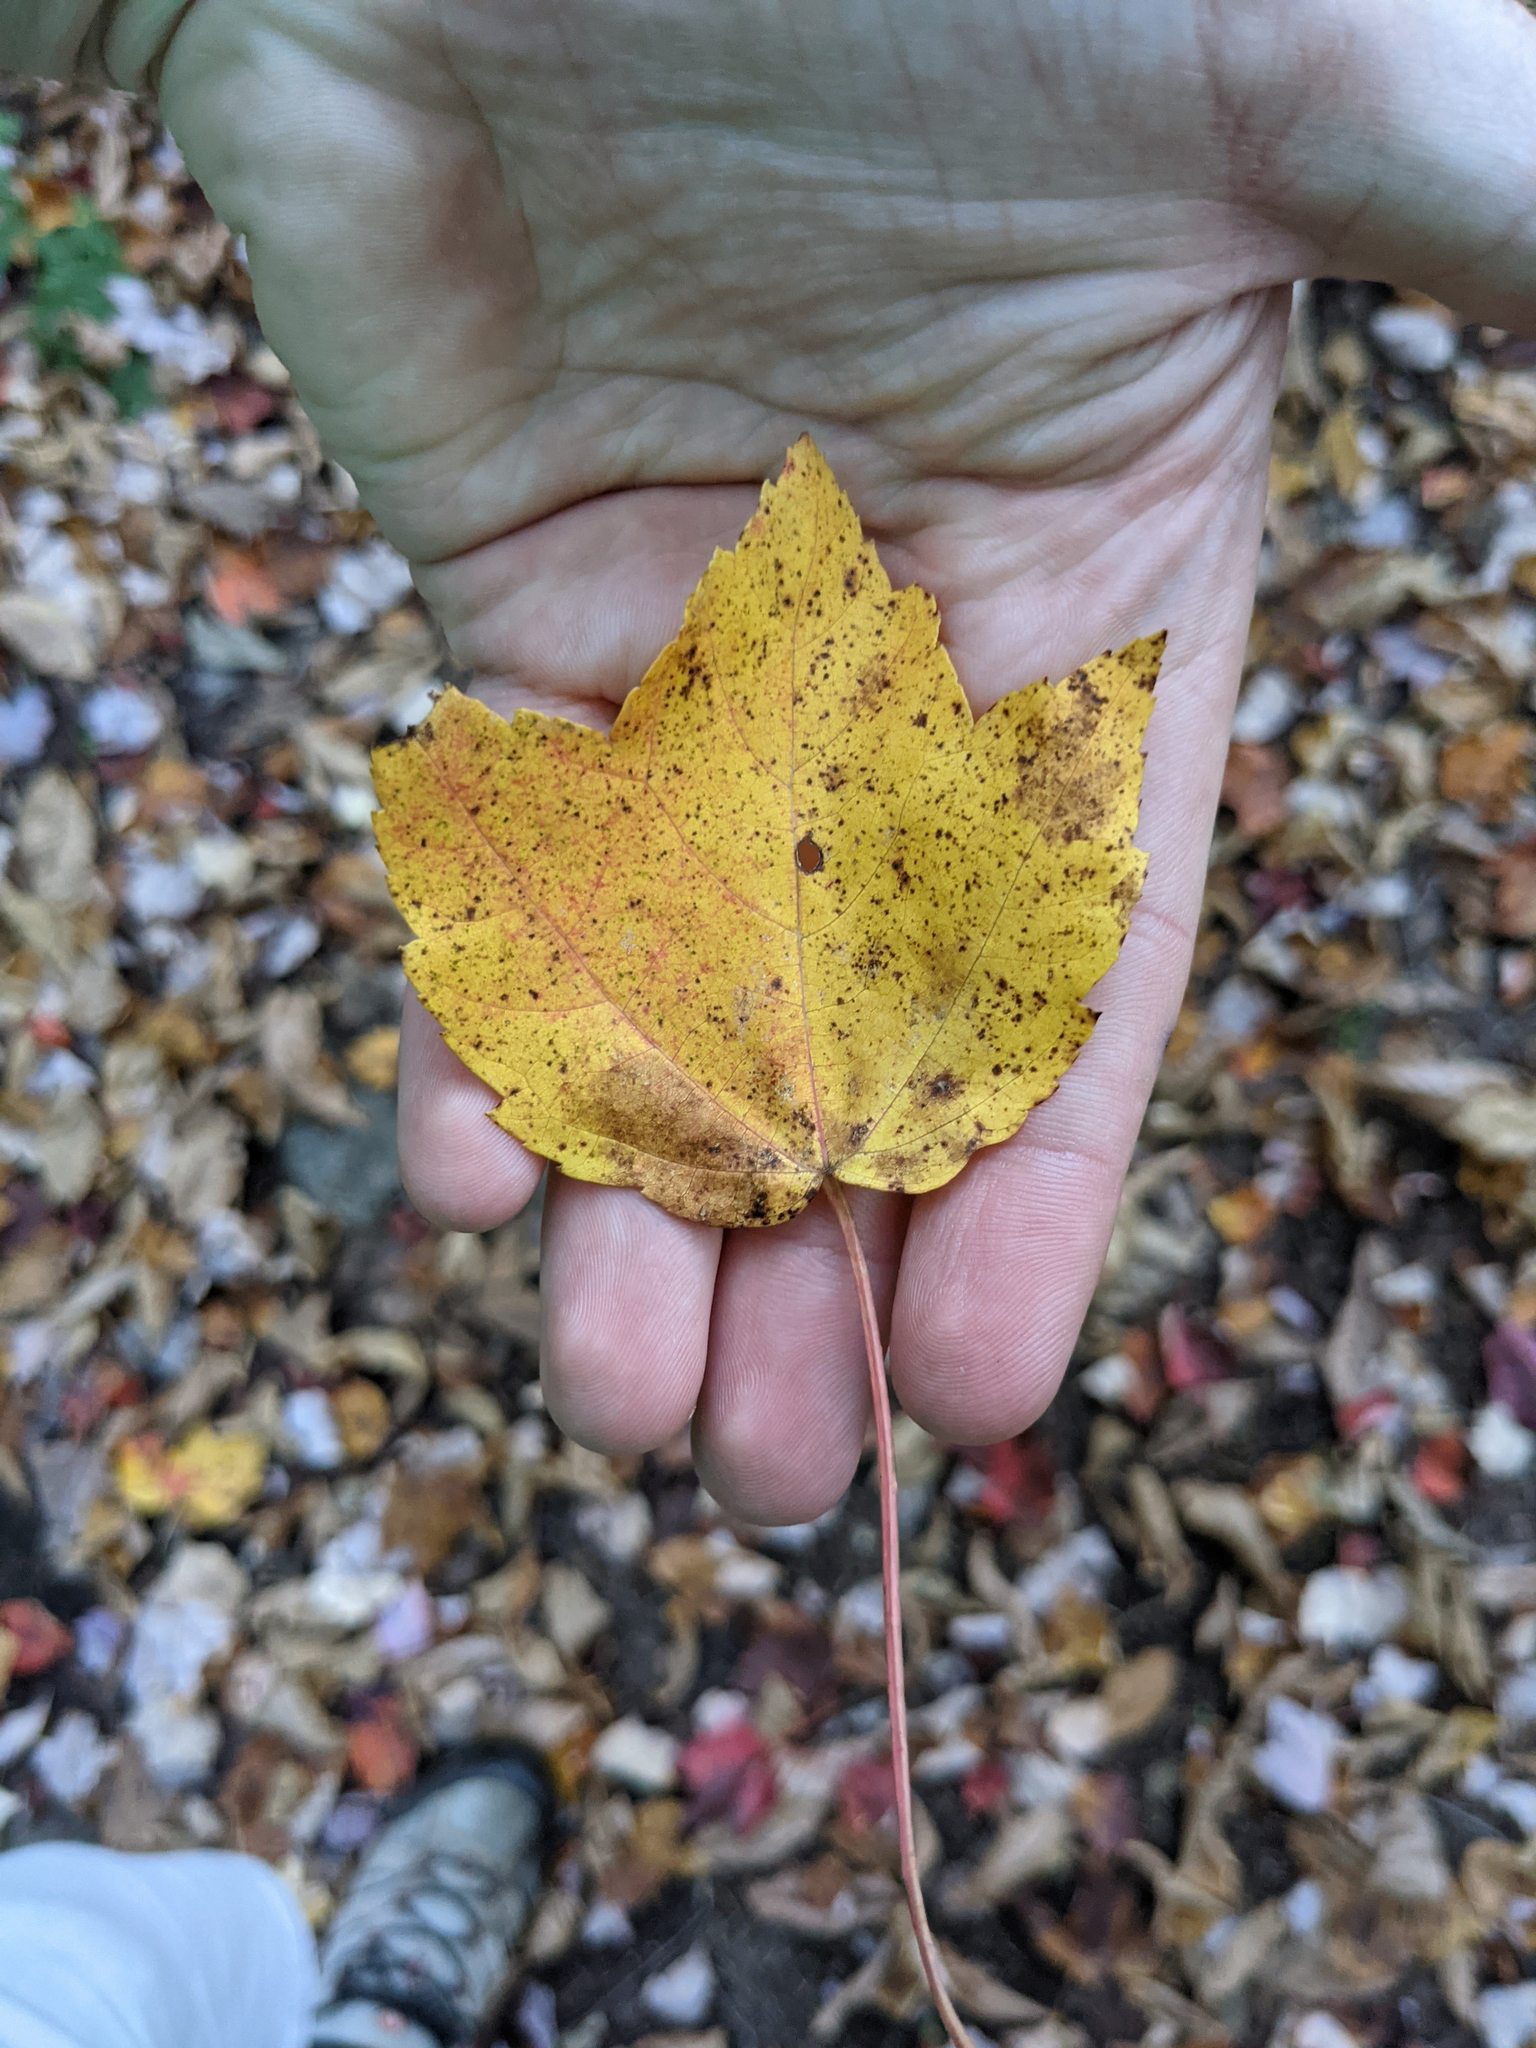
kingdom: Plantae
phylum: Tracheophyta
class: Magnoliopsida
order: Sapindales
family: Sapindaceae
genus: Acer
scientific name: Acer rubrum
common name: Red maple
